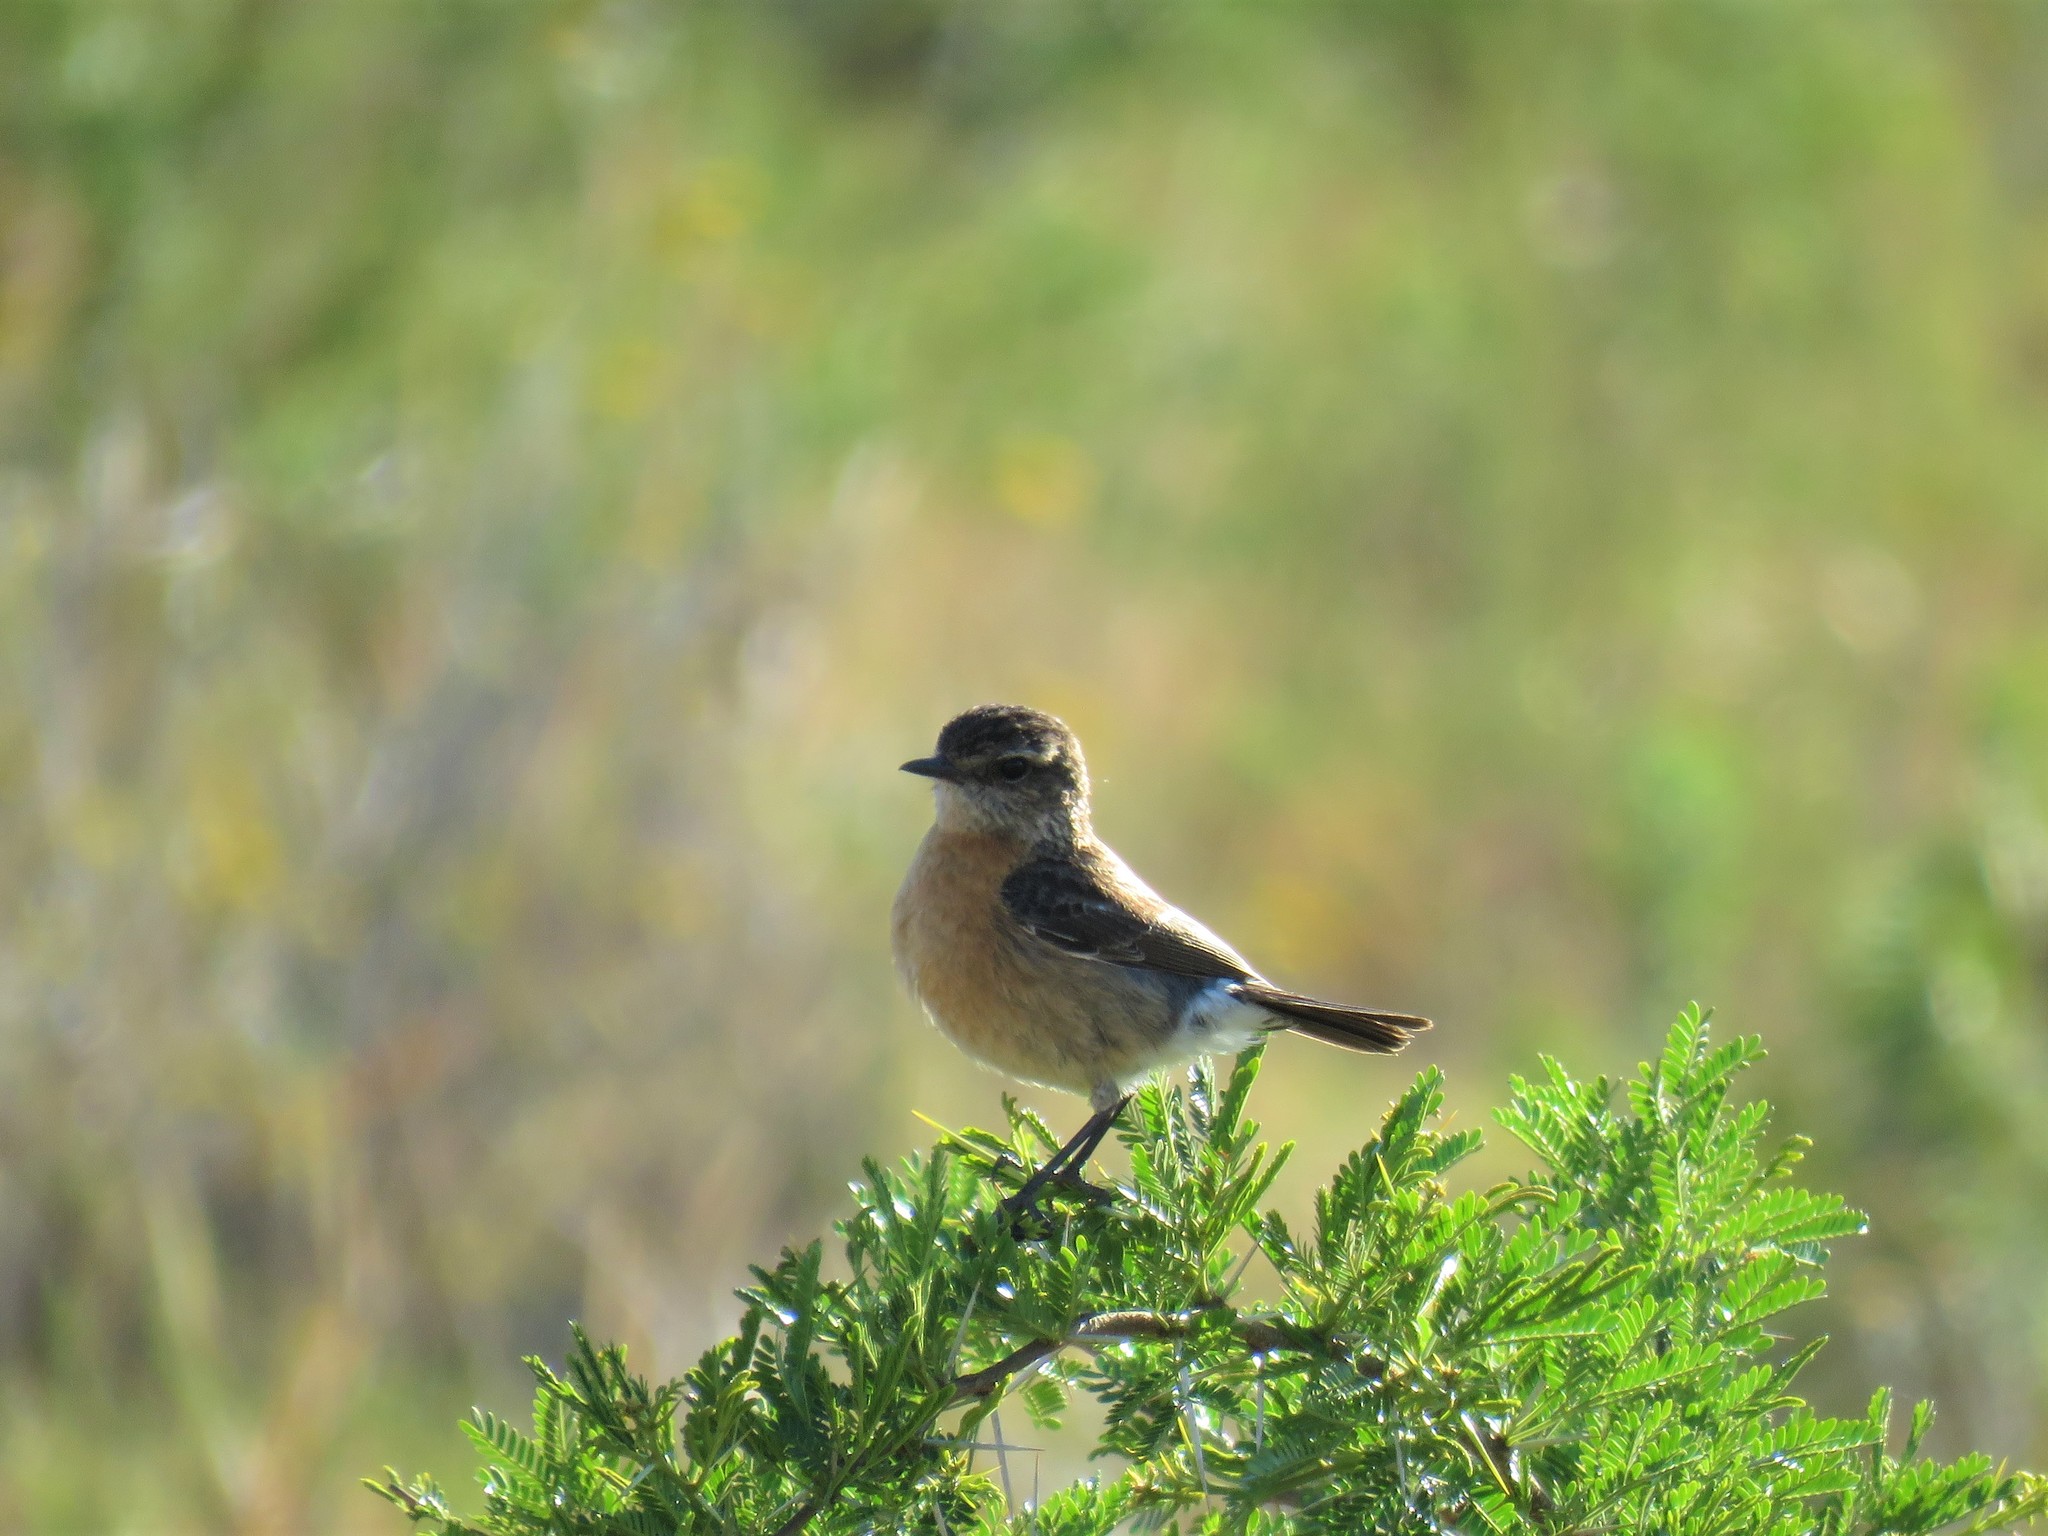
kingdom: Animalia
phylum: Chordata
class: Aves
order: Passeriformes
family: Muscicapidae
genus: Saxicola
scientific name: Saxicola torquatus
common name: African stonechat
